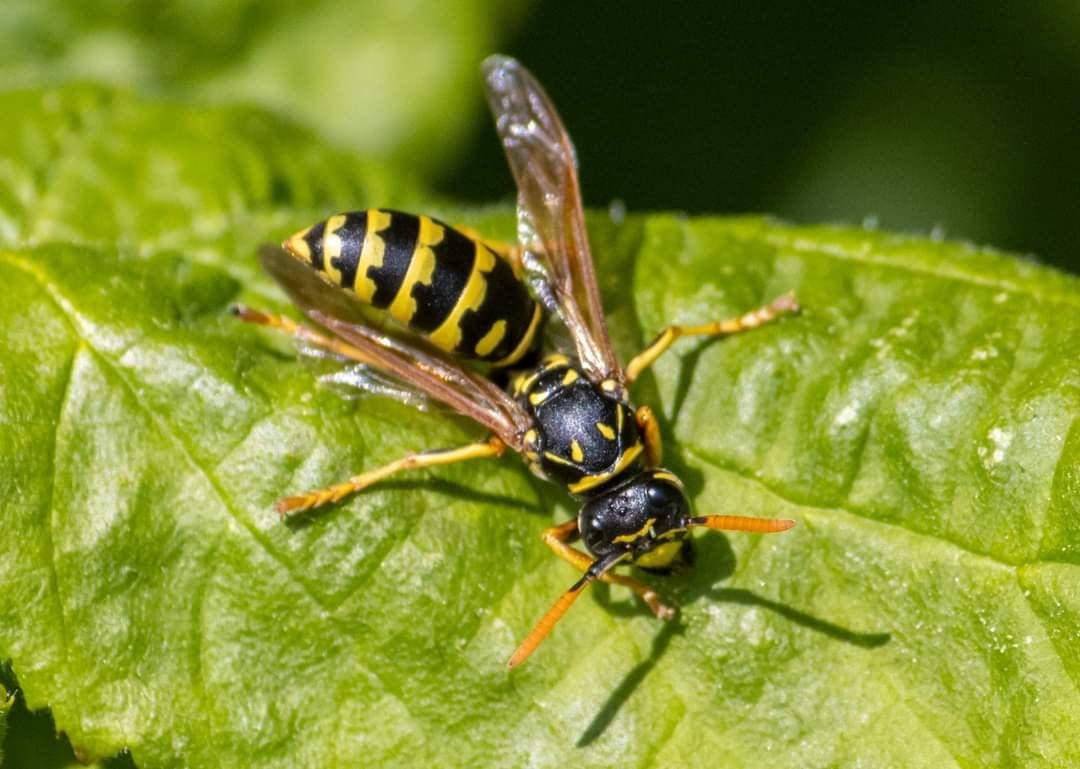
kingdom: Animalia
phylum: Arthropoda
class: Insecta
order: Hymenoptera
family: Eumenidae
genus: Polistes
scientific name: Polistes dominula
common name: Paper wasp
